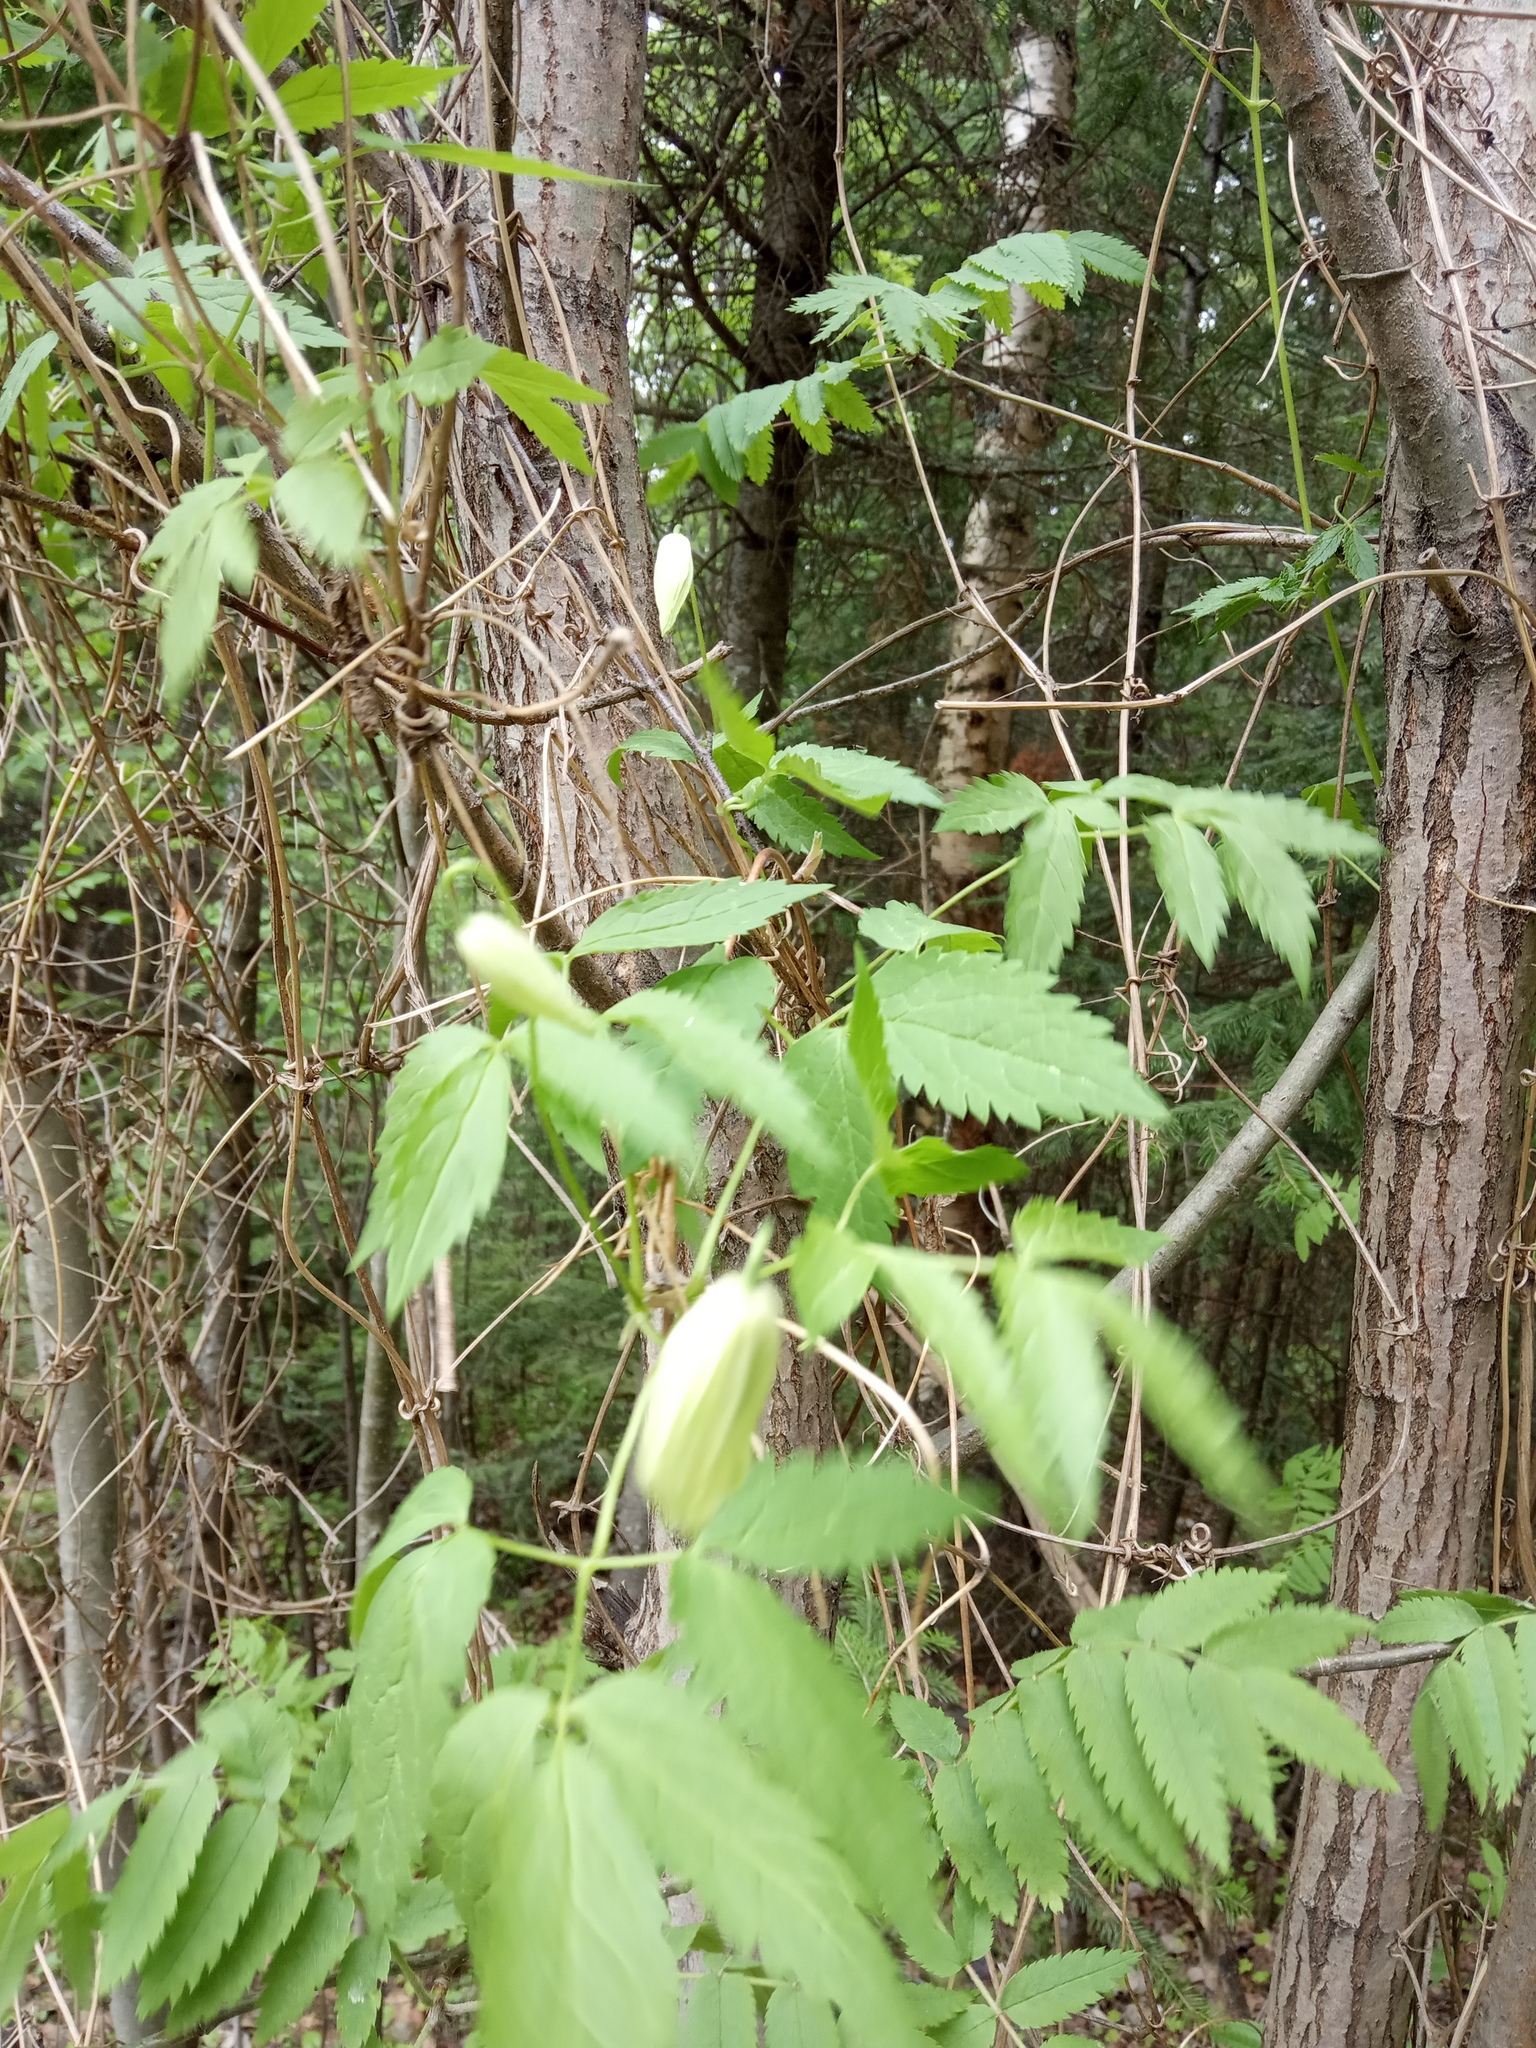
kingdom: Plantae
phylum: Tracheophyta
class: Magnoliopsida
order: Ranunculales
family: Ranunculaceae
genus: Clematis
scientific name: Clematis sibirica
